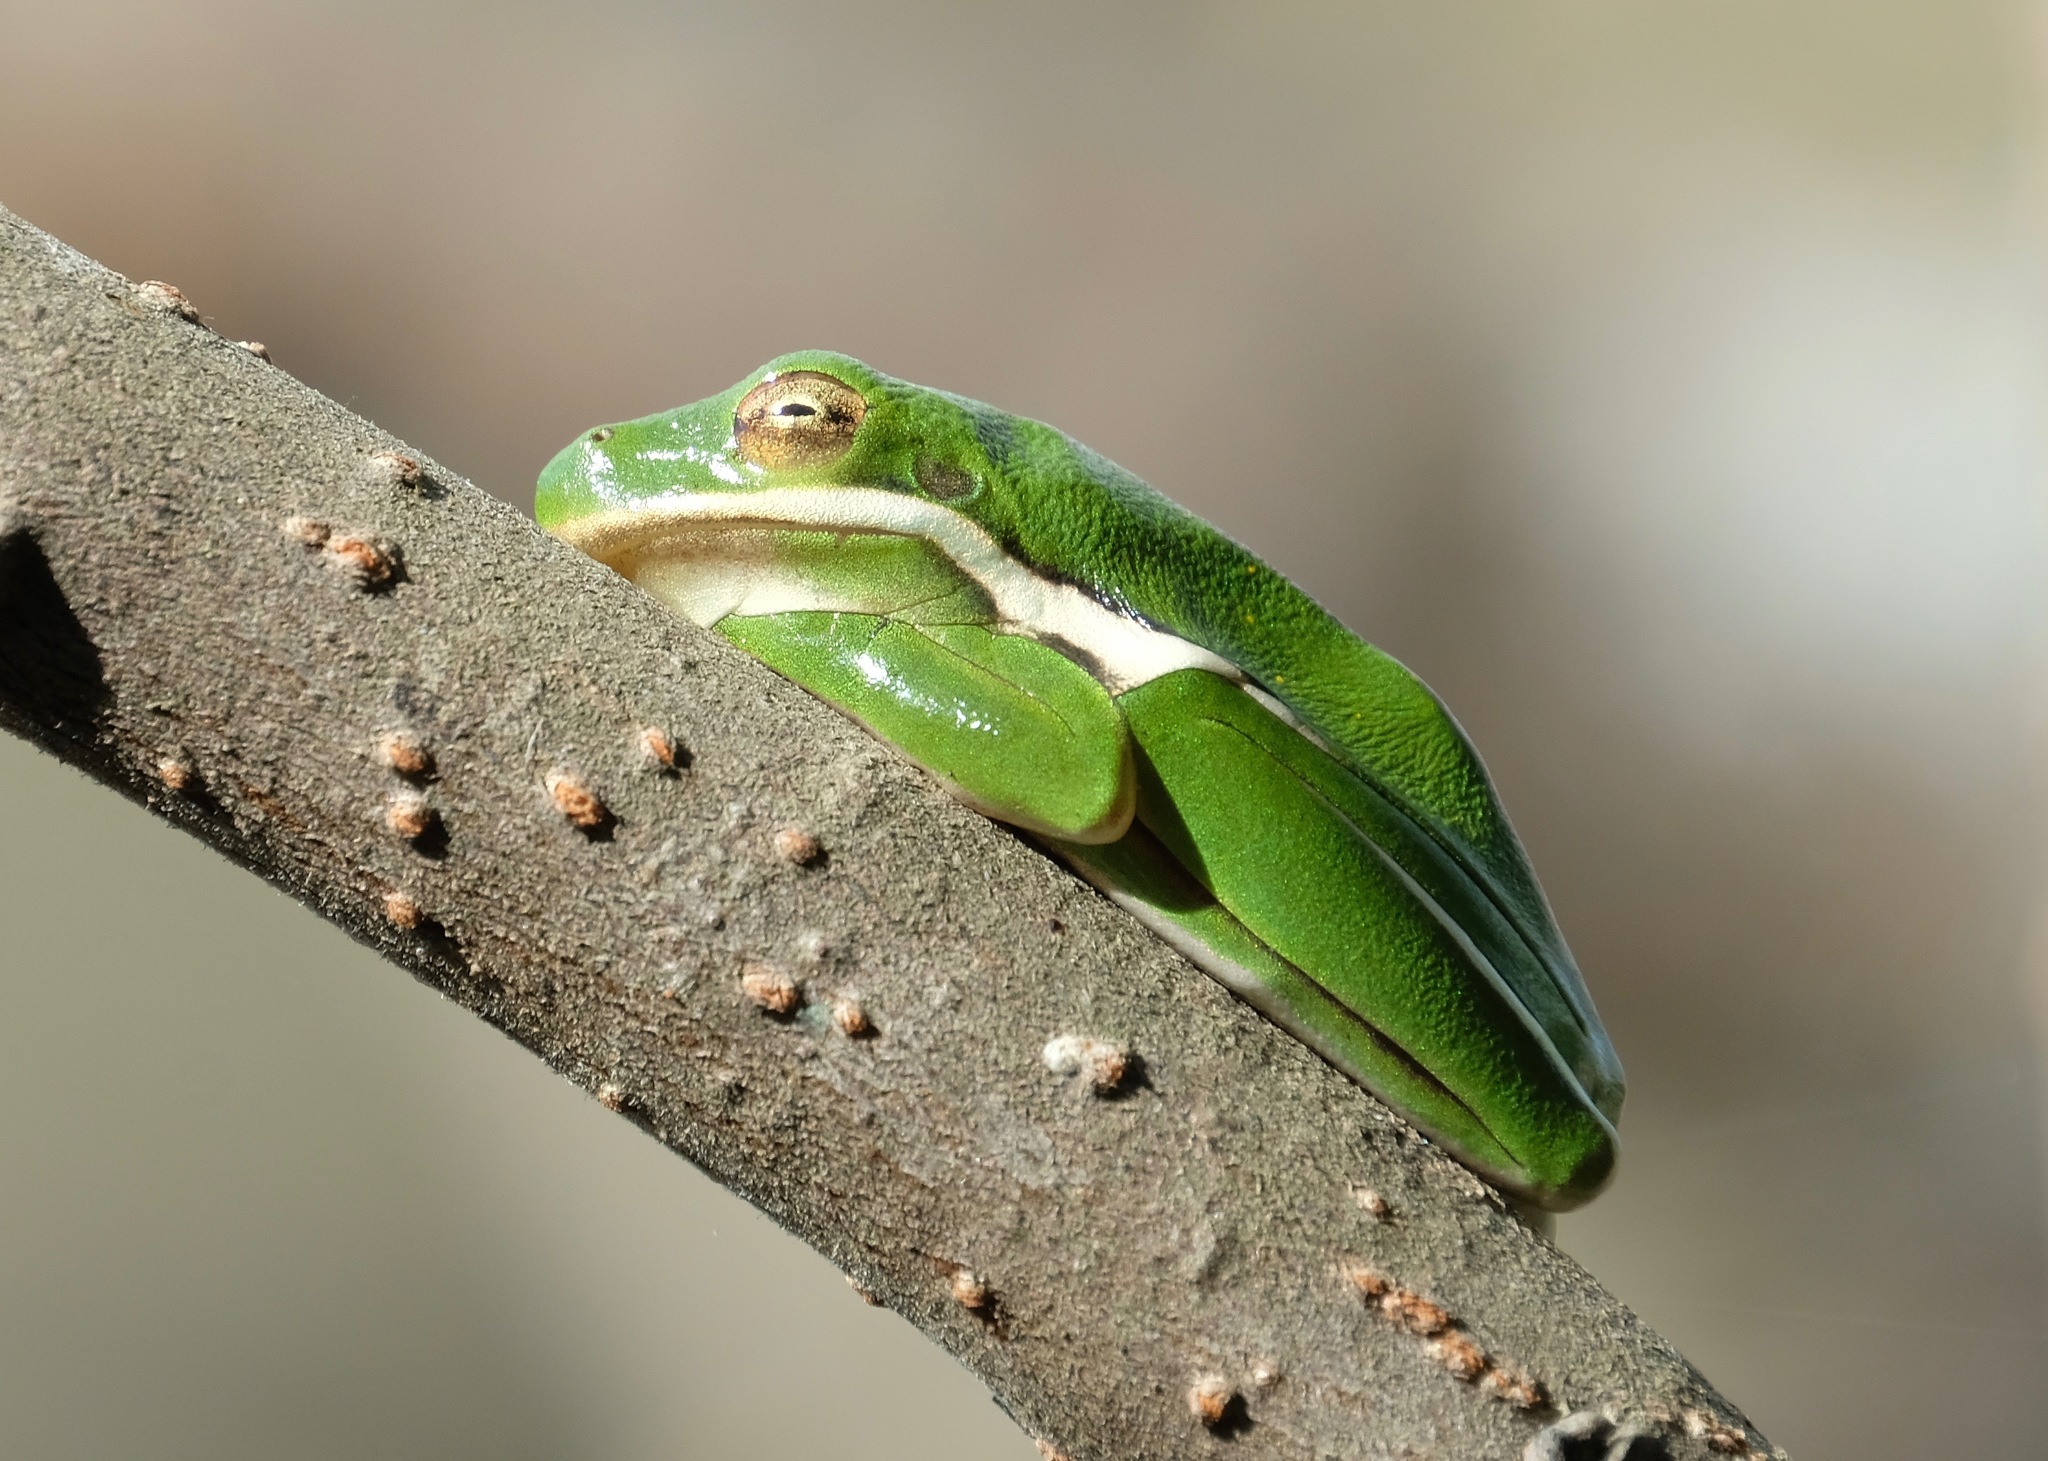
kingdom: Animalia
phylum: Chordata
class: Amphibia
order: Anura
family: Hylidae
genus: Dryophytes
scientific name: Dryophytes cinereus
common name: Green treefrog
